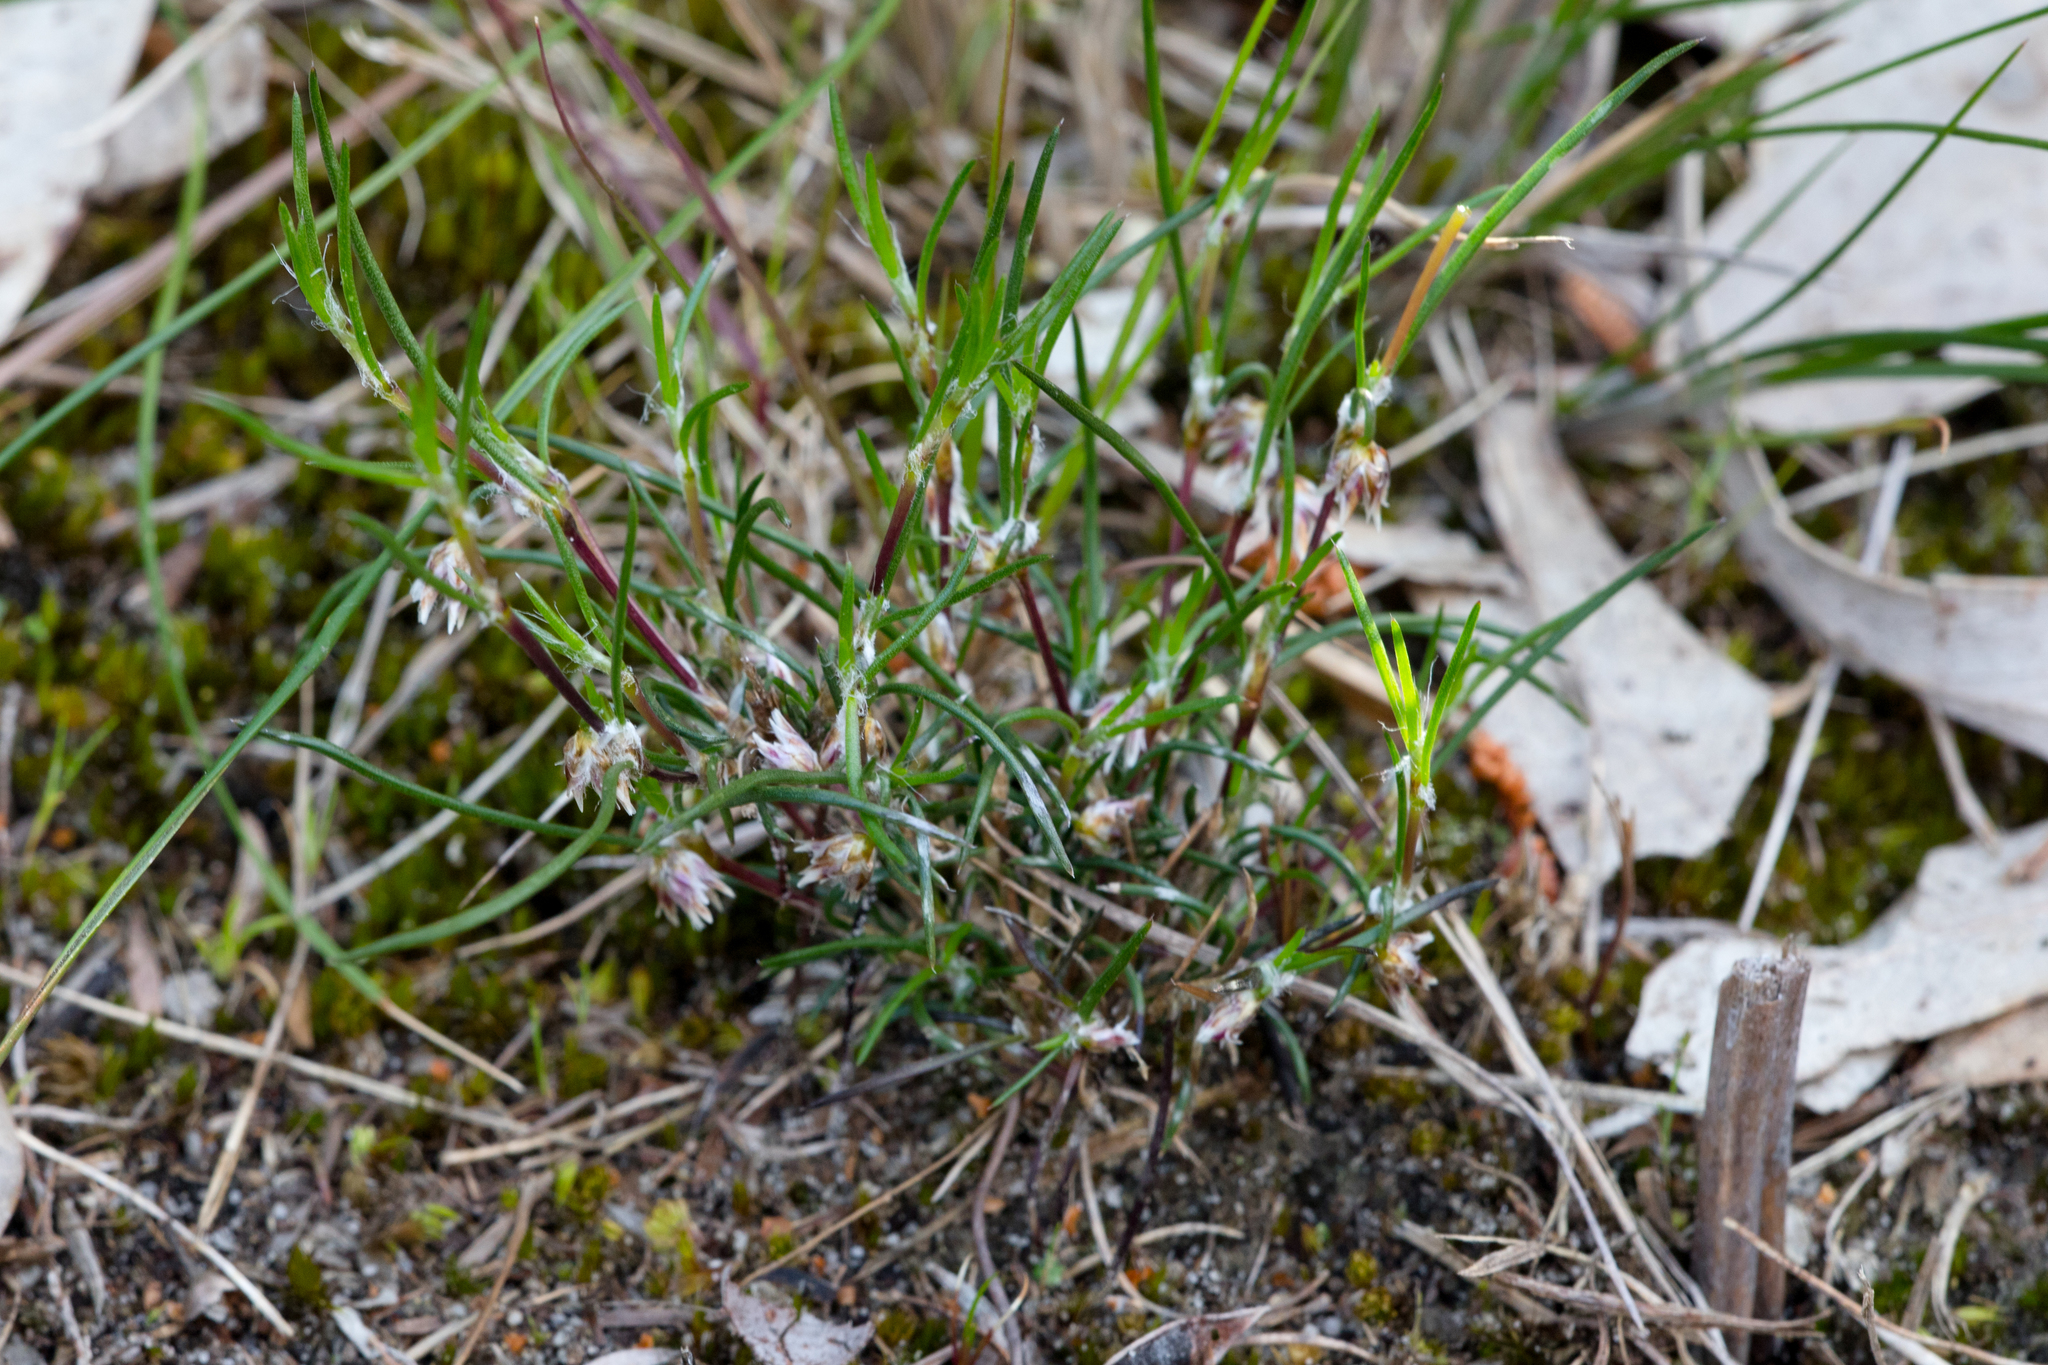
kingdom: Plantae
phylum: Tracheophyta
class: Liliopsida
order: Asparagales
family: Asparagaceae
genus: Laxmannia
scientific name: Laxmannia orientalis
